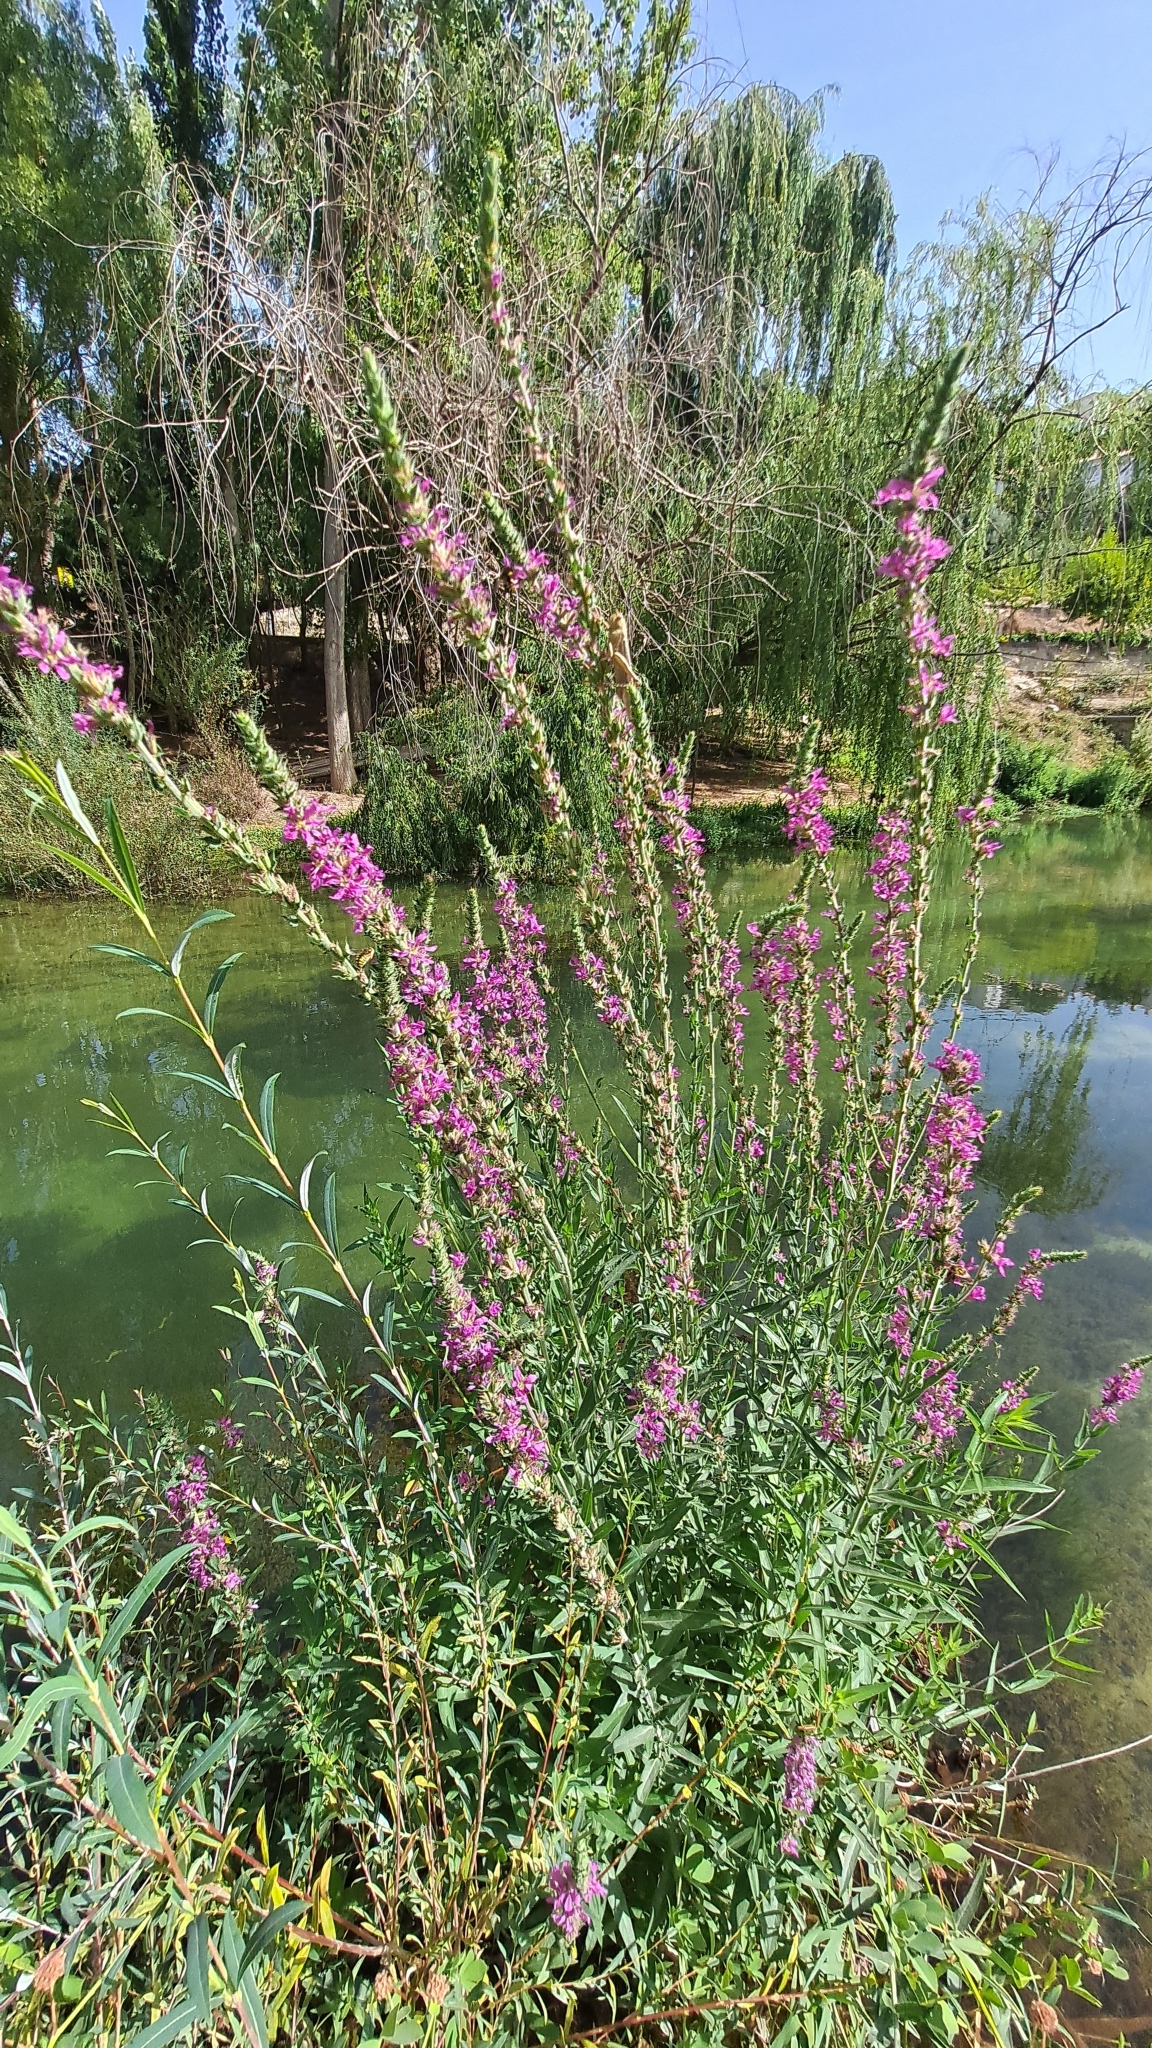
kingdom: Plantae
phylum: Tracheophyta
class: Magnoliopsida
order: Myrtales
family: Lythraceae
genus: Lythrum
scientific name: Lythrum salicaria
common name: Purple loosestrife
